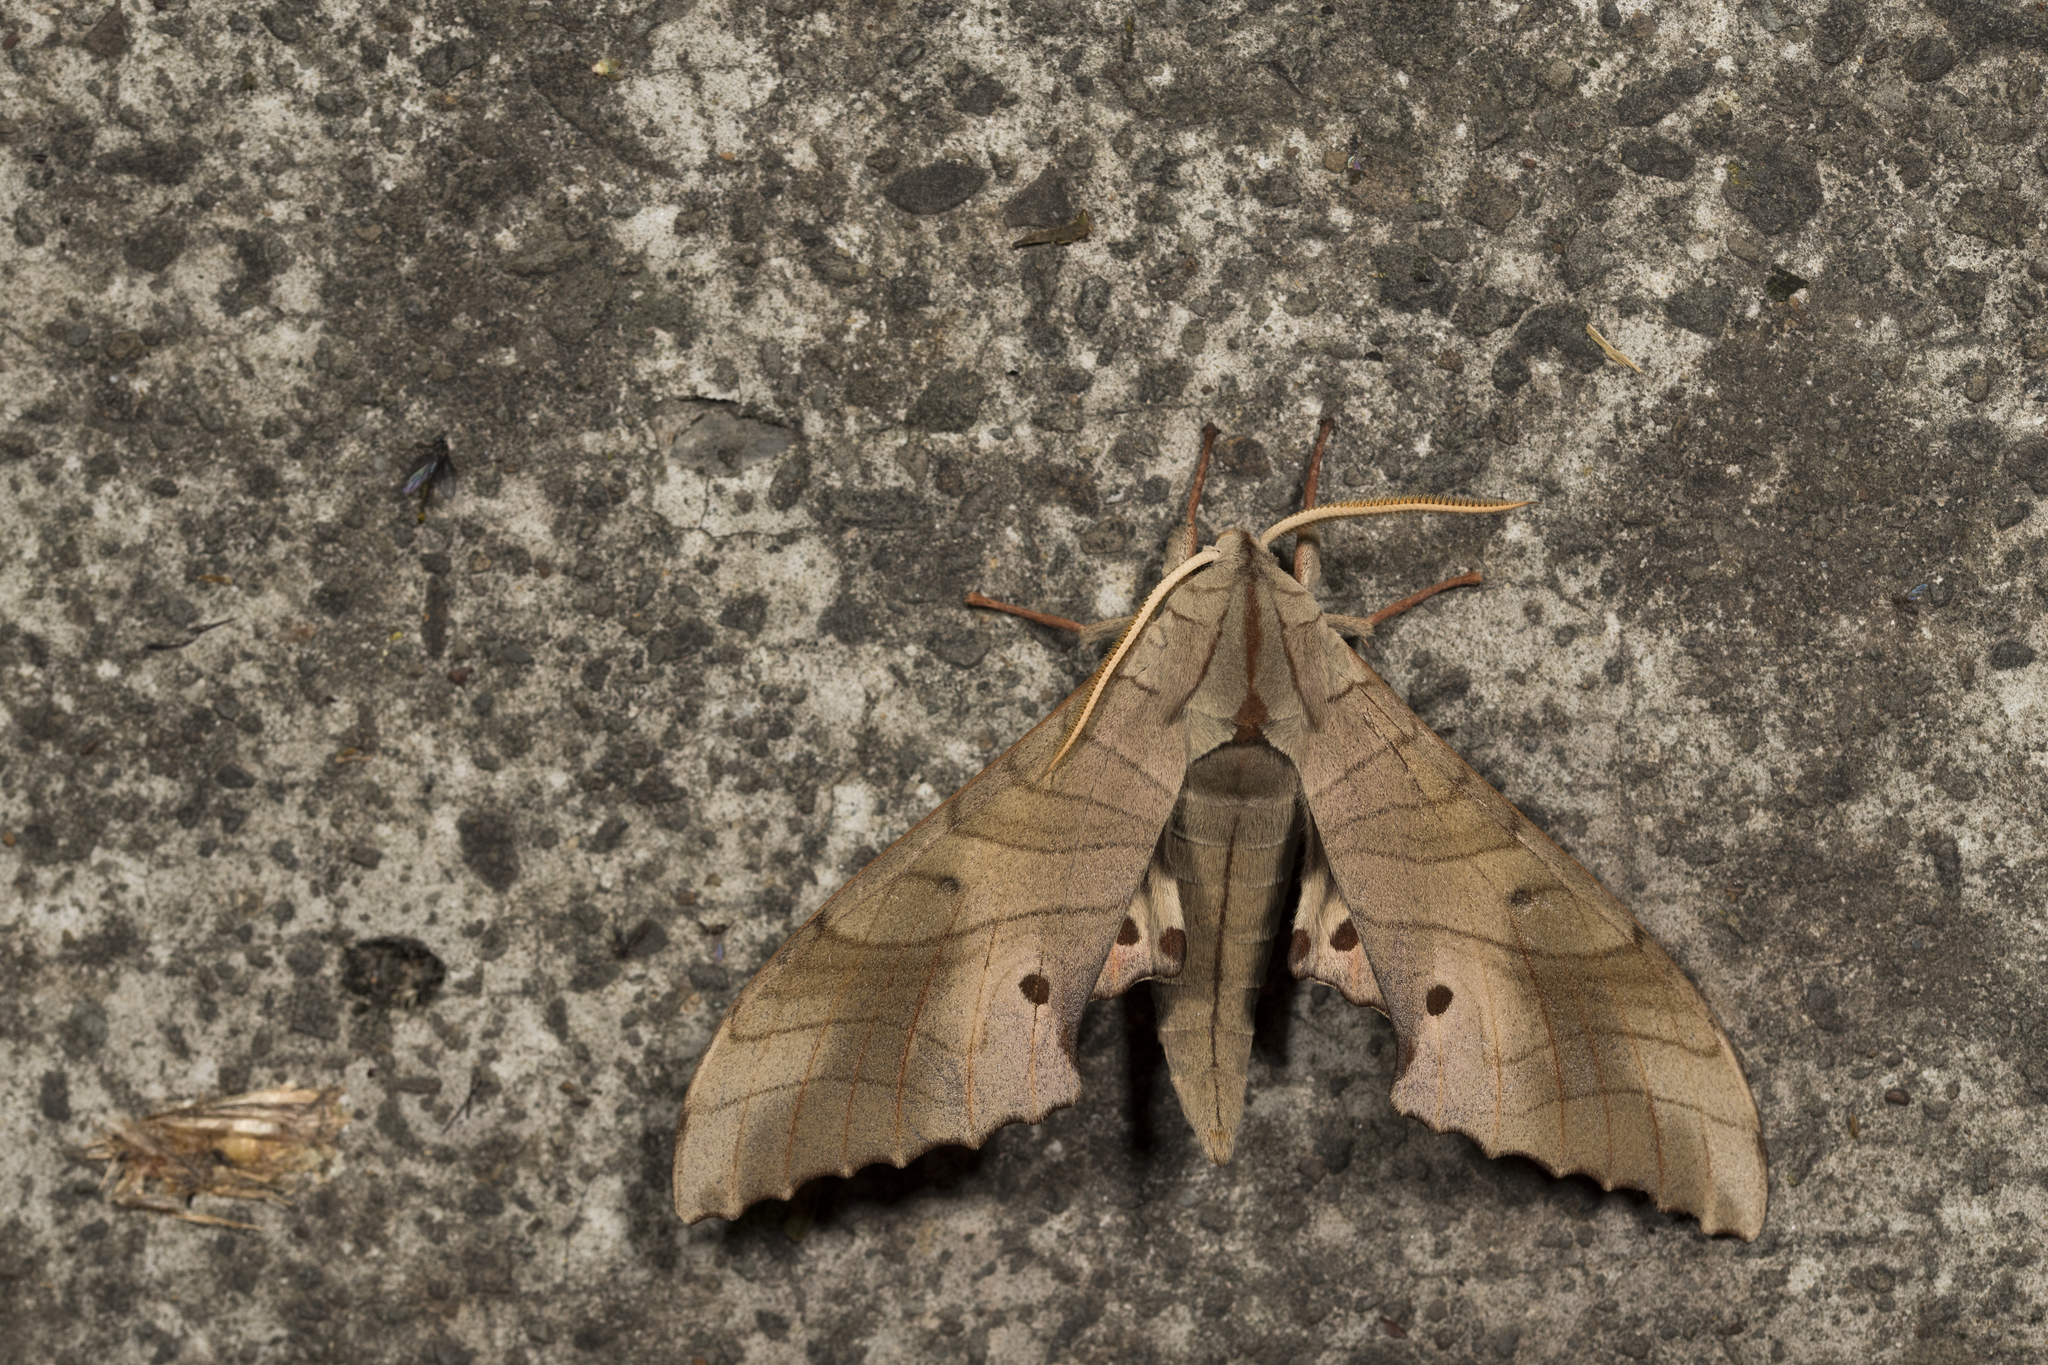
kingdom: Animalia
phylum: Arthropoda
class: Insecta
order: Lepidoptera
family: Sphingidae
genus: Marumba
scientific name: Marumba sperchius
